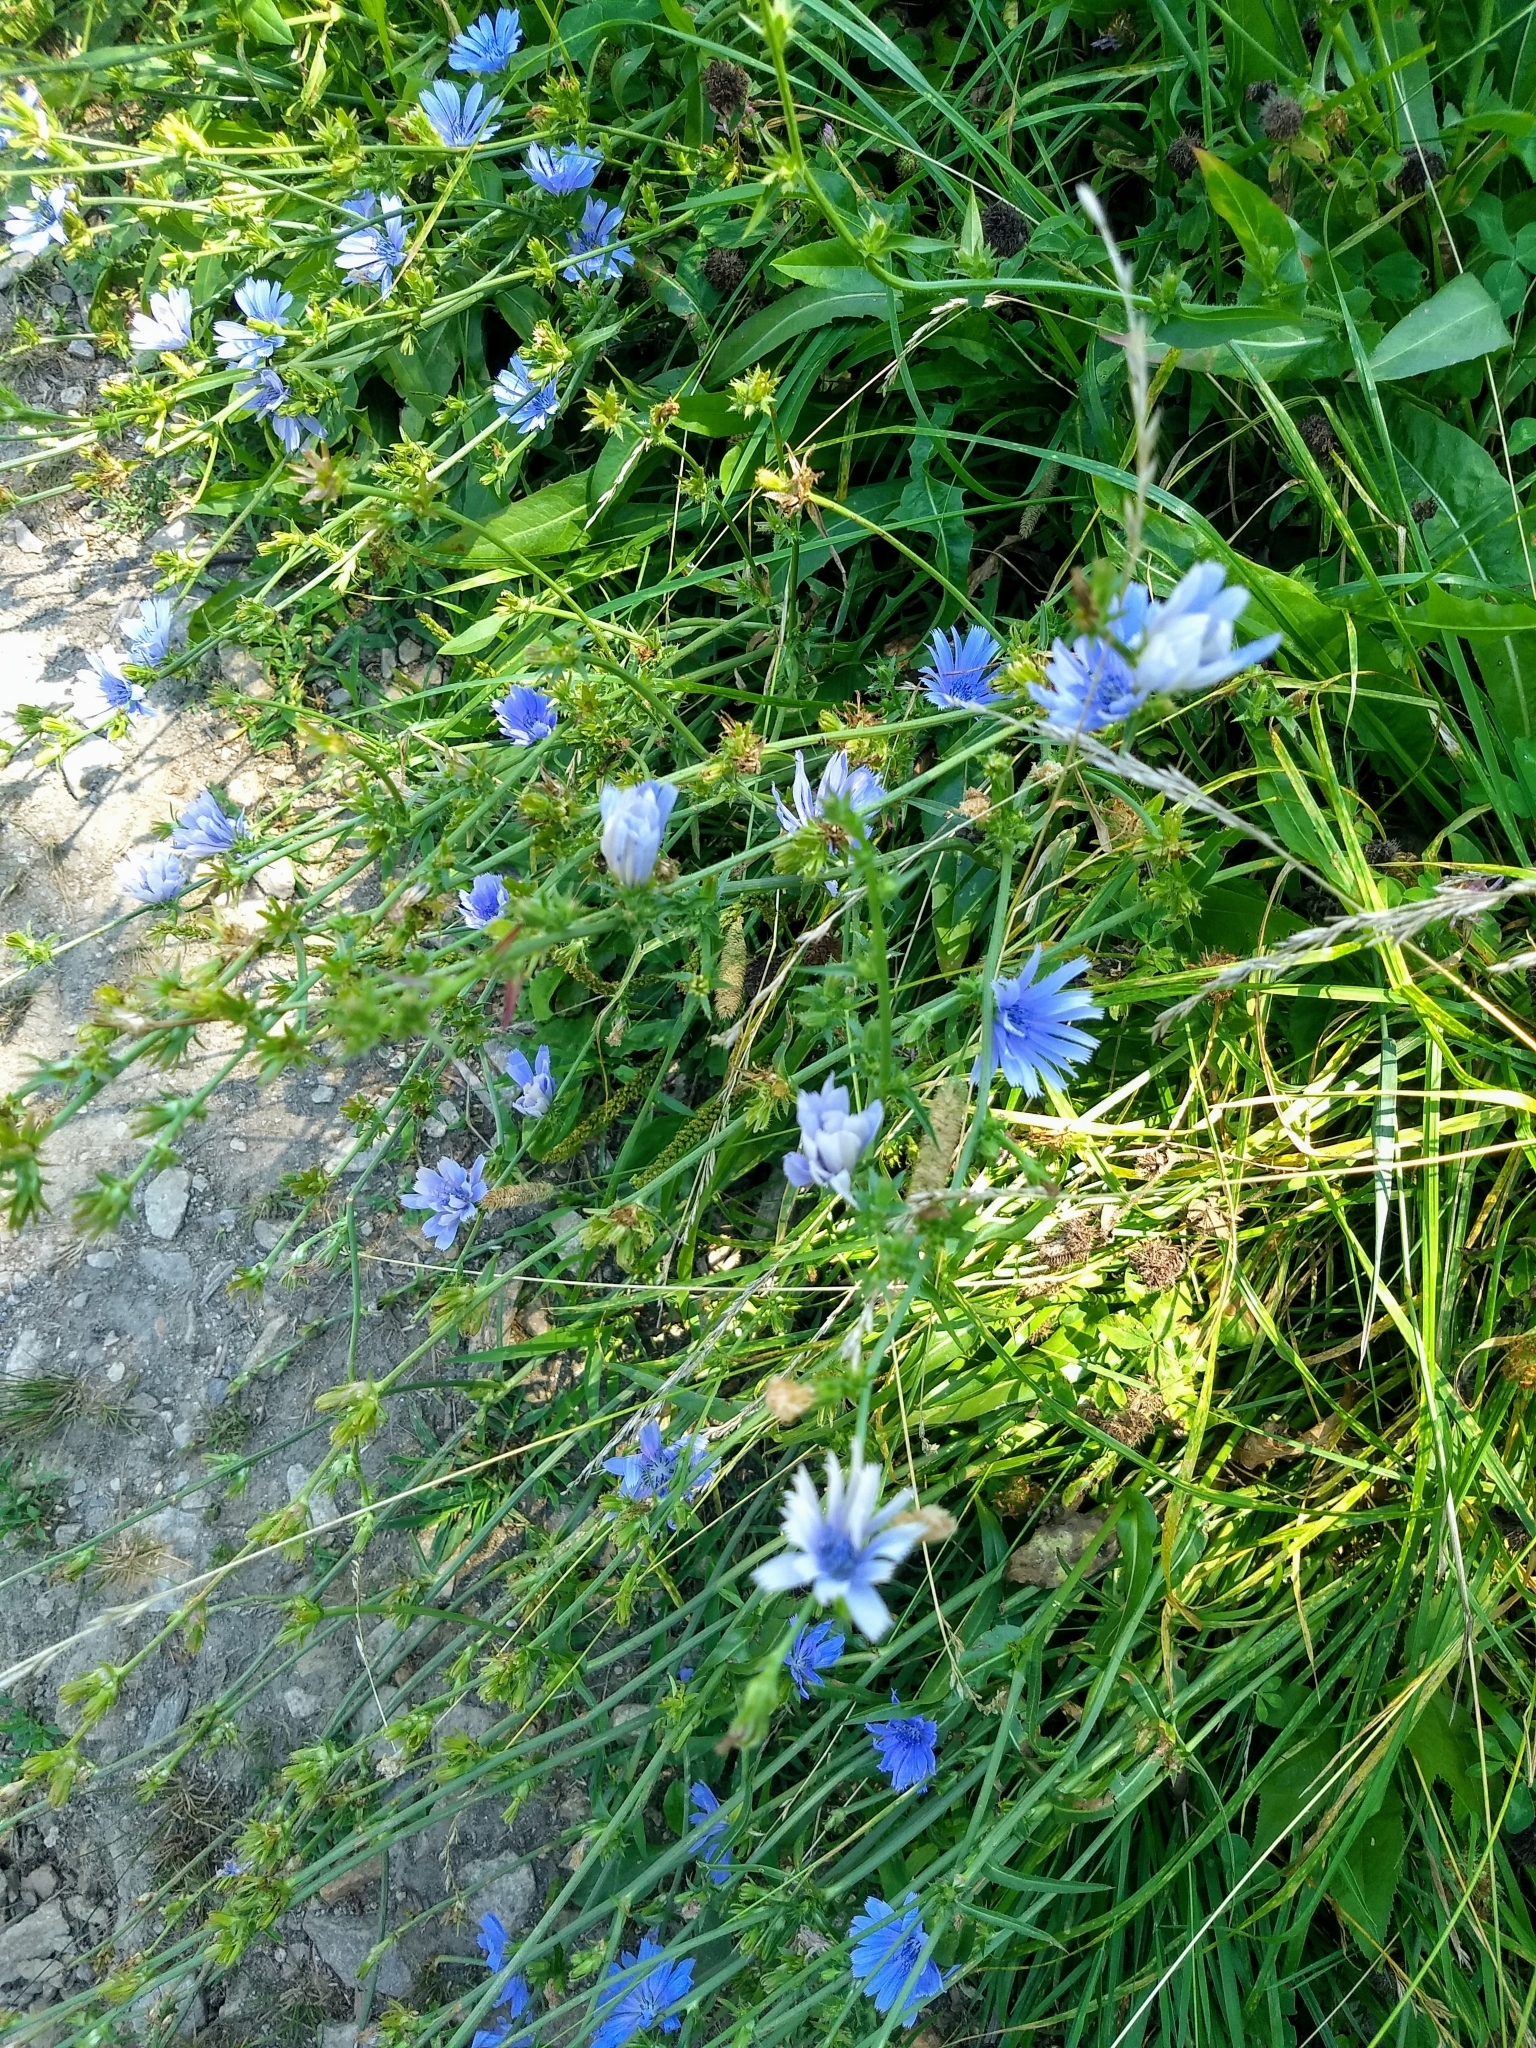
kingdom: Plantae
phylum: Tracheophyta
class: Magnoliopsida
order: Asterales
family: Asteraceae
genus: Cichorium
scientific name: Cichorium intybus
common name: Chicory
